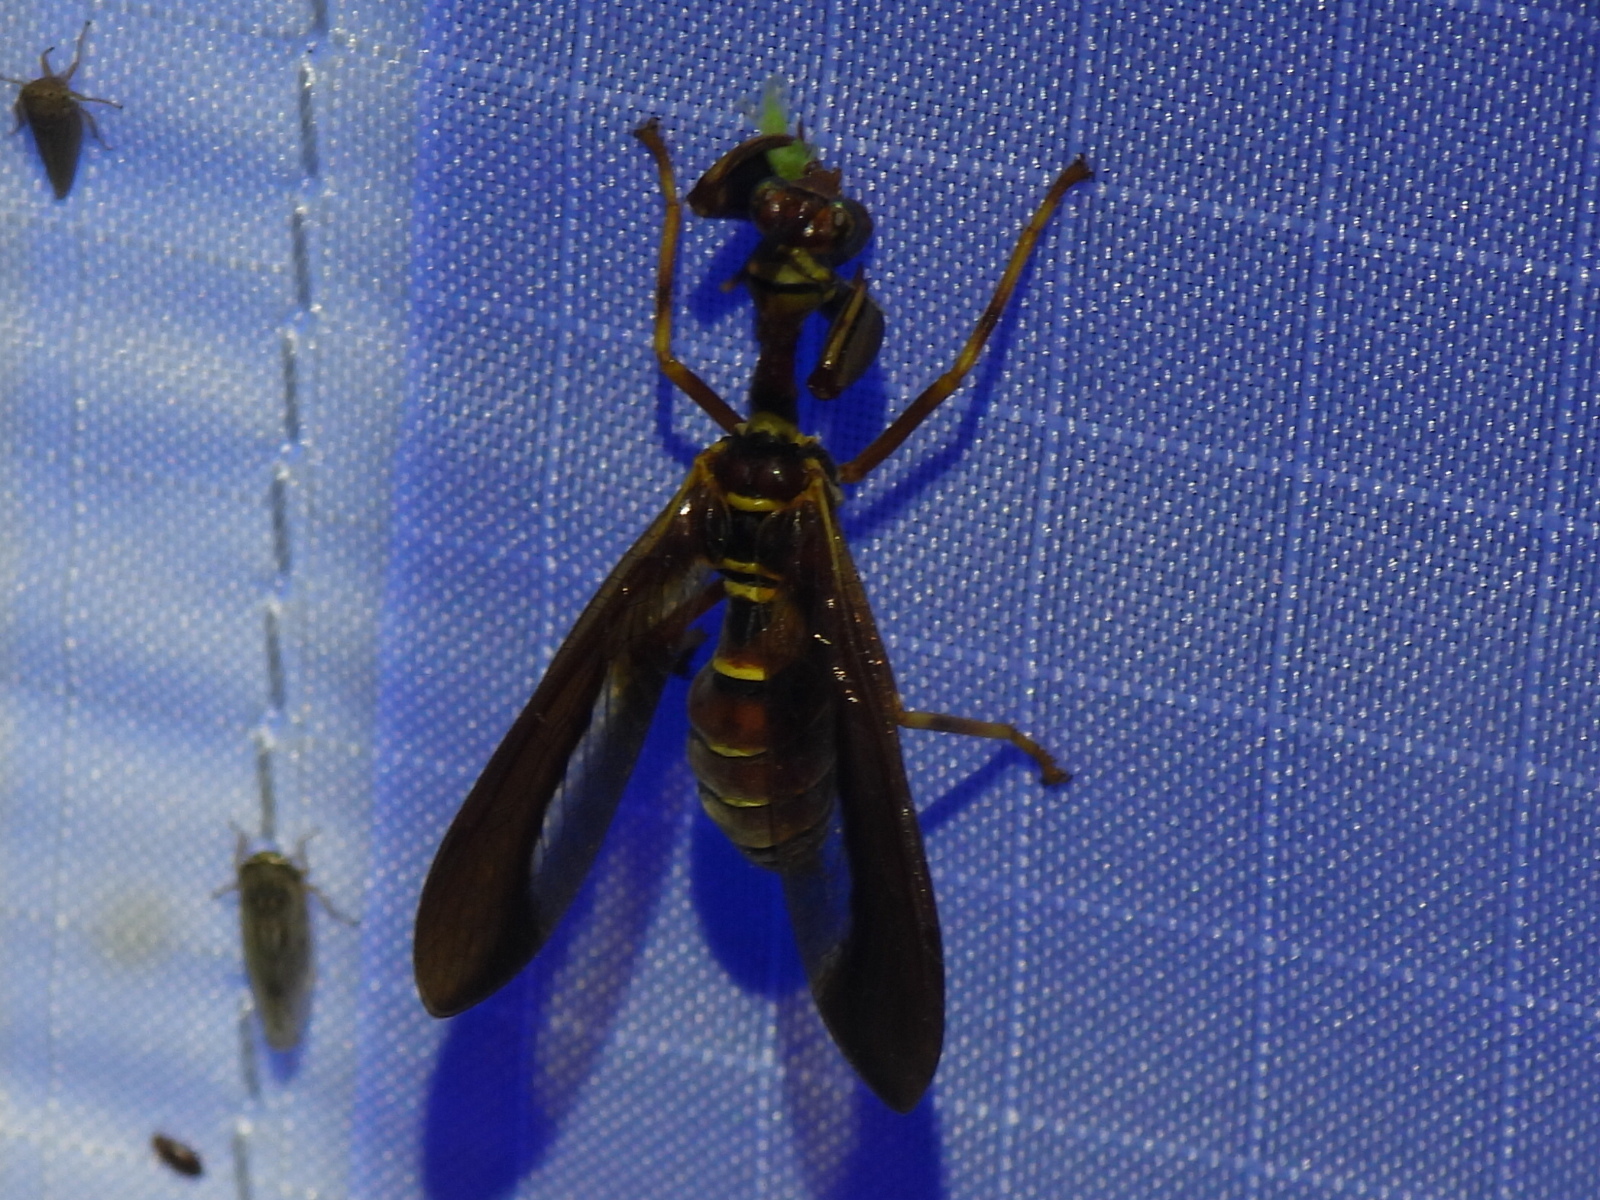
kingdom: Animalia
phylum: Arthropoda
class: Insecta
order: Neuroptera
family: Mantispidae
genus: Climaciella
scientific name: Climaciella brunnea
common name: Brown wasp mantidfly
